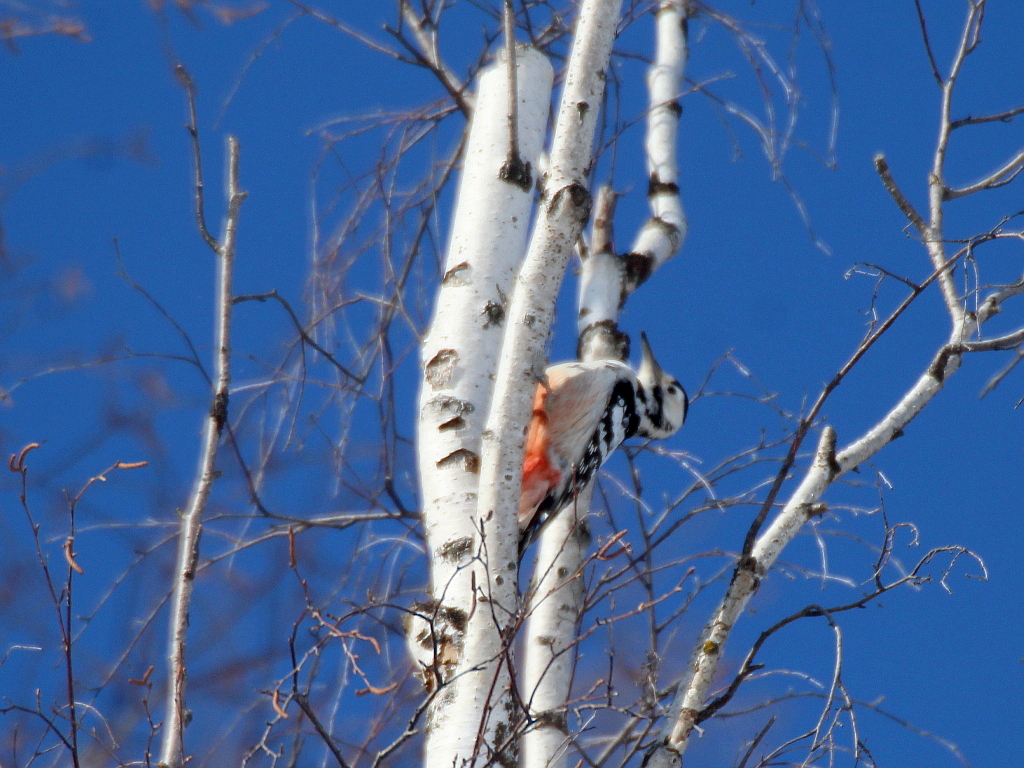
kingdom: Animalia
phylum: Chordata
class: Aves
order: Piciformes
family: Picidae
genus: Dendrocopos
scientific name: Dendrocopos leucotos
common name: White-backed woodpecker
